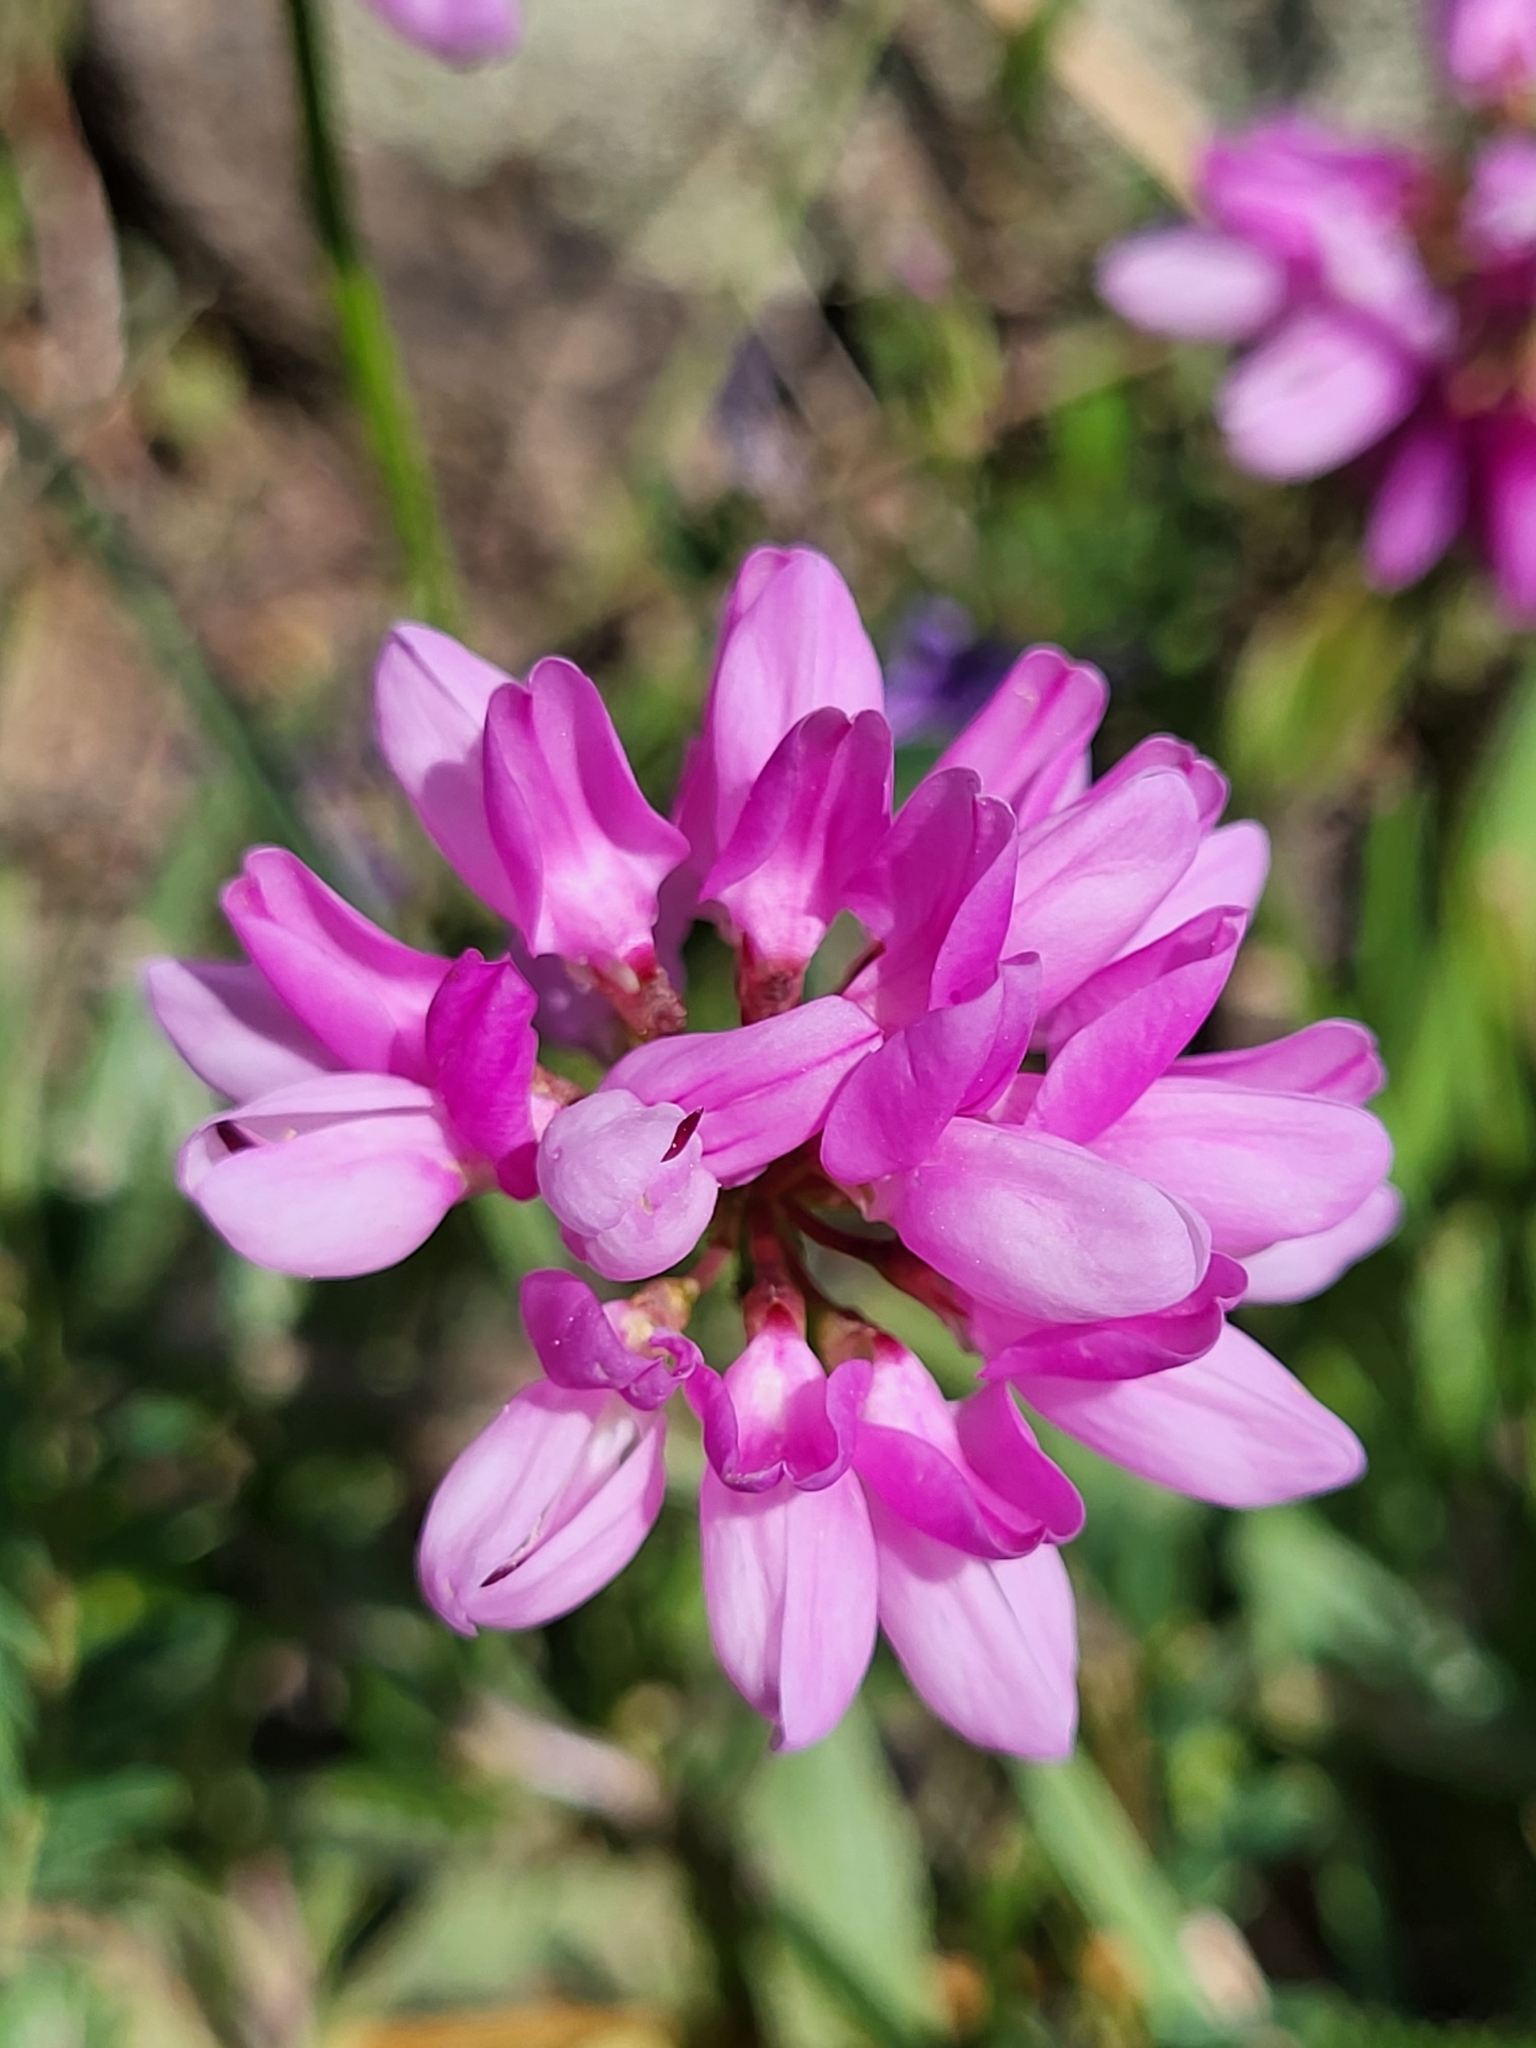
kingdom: Plantae
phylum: Tracheophyta
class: Magnoliopsida
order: Fabales
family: Fabaceae
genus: Coronilla
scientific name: Coronilla varia
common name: Crownvetch
